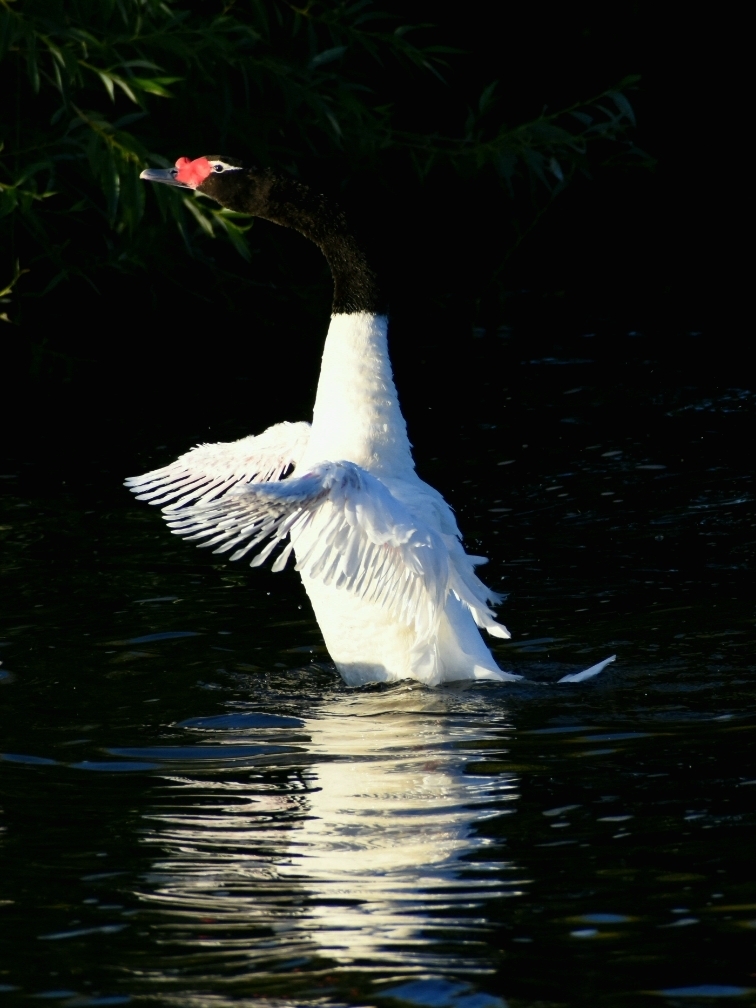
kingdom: Animalia
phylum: Chordata
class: Aves
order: Anseriformes
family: Anatidae
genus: Cygnus
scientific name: Cygnus melancoryphus
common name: Black-necked swan
